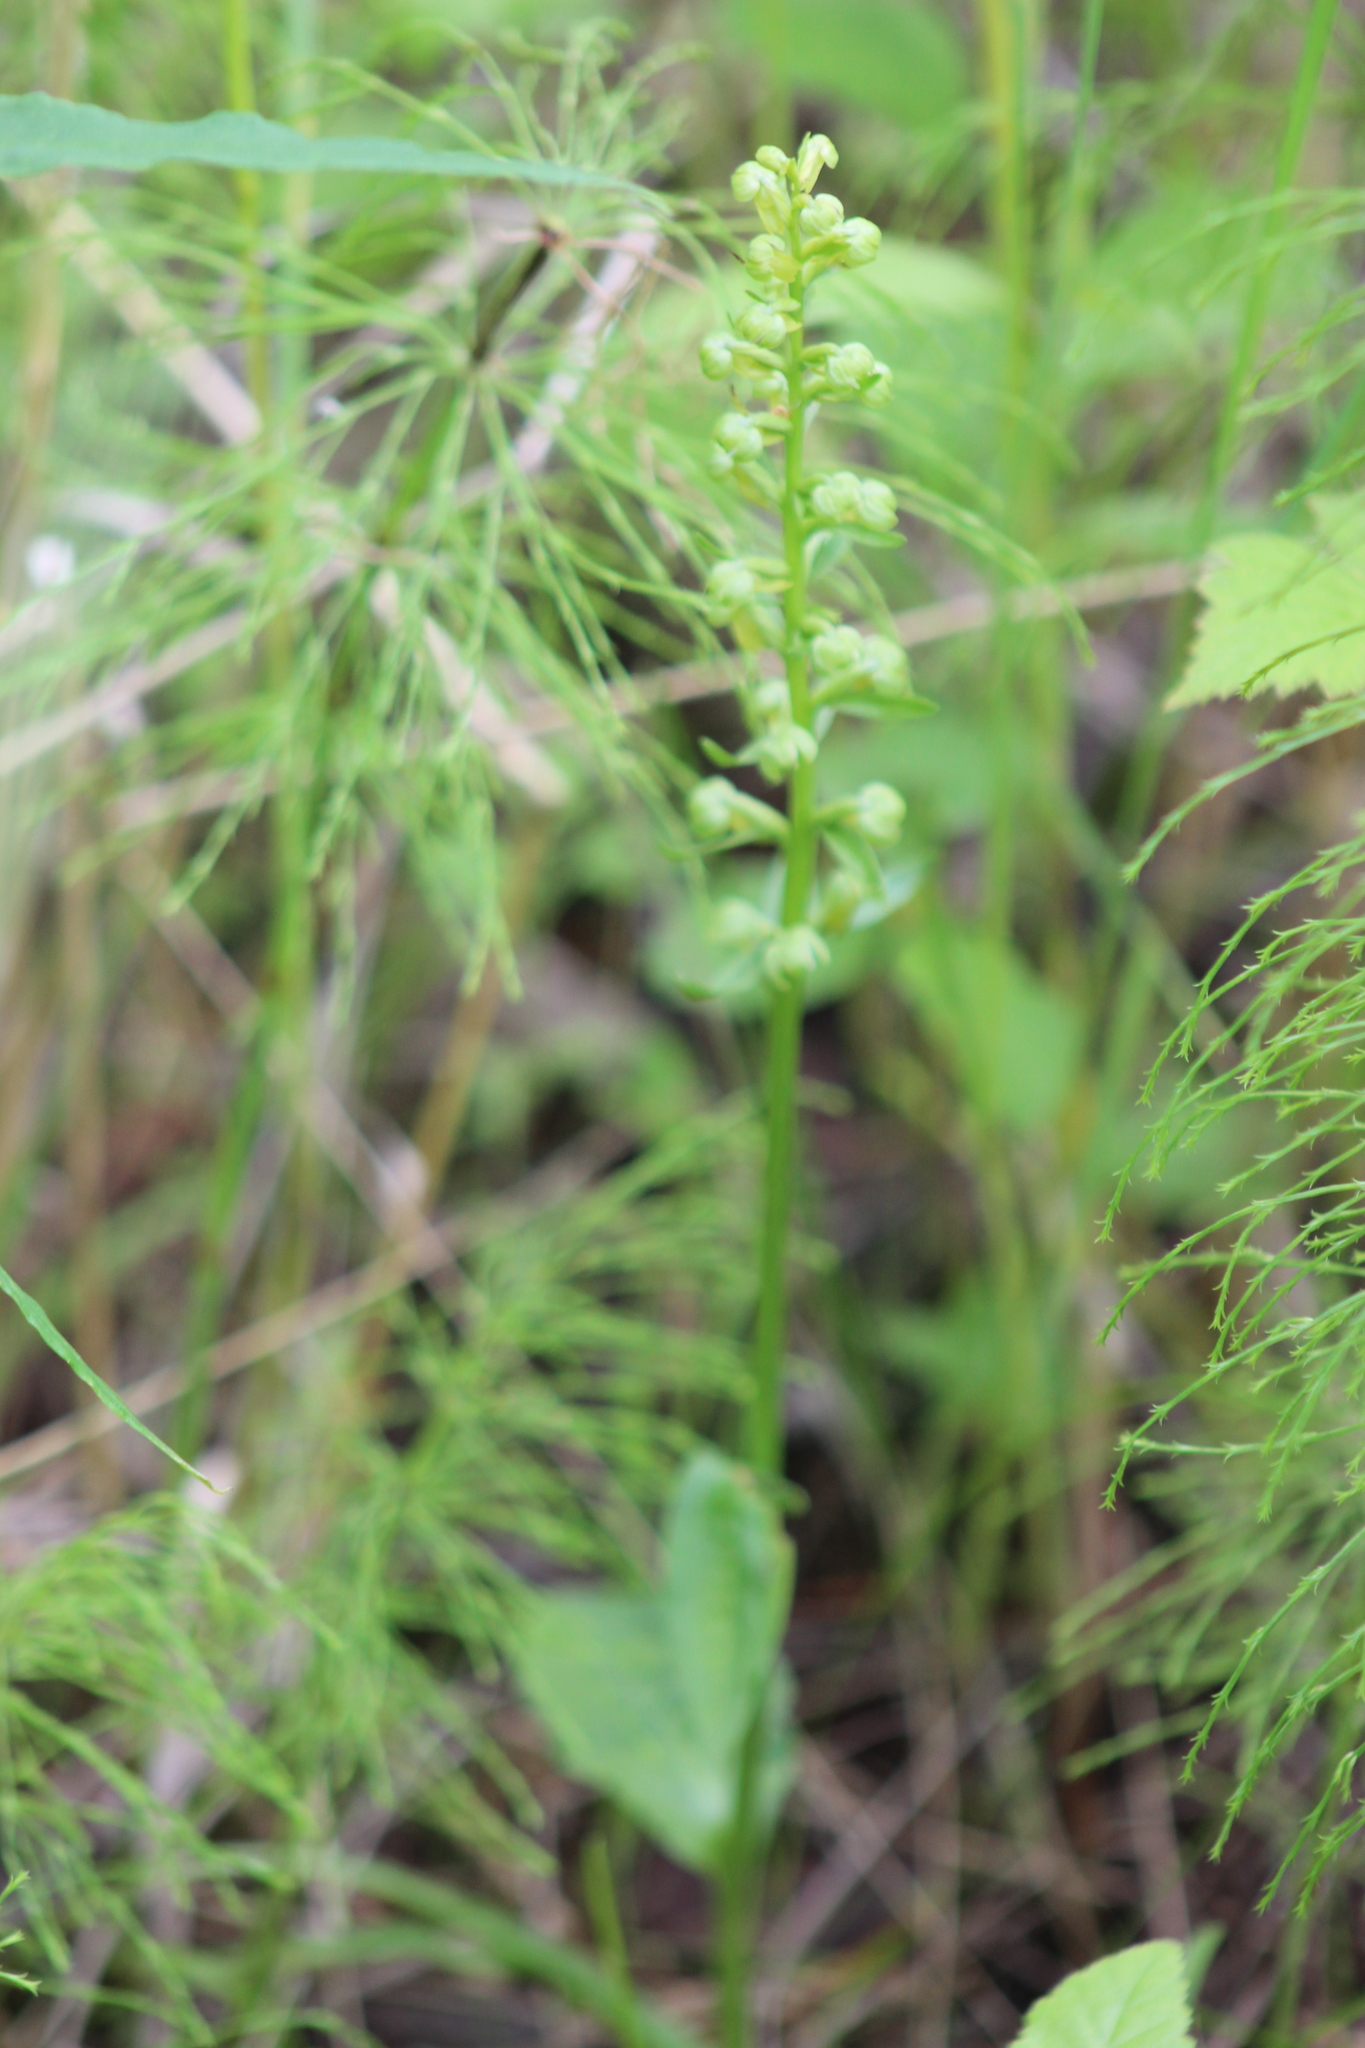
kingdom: Plantae
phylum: Tracheophyta
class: Liliopsida
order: Asparagales
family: Orchidaceae
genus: Dactylorhiza
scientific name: Dactylorhiza viridis
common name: Longbract frog orchid
